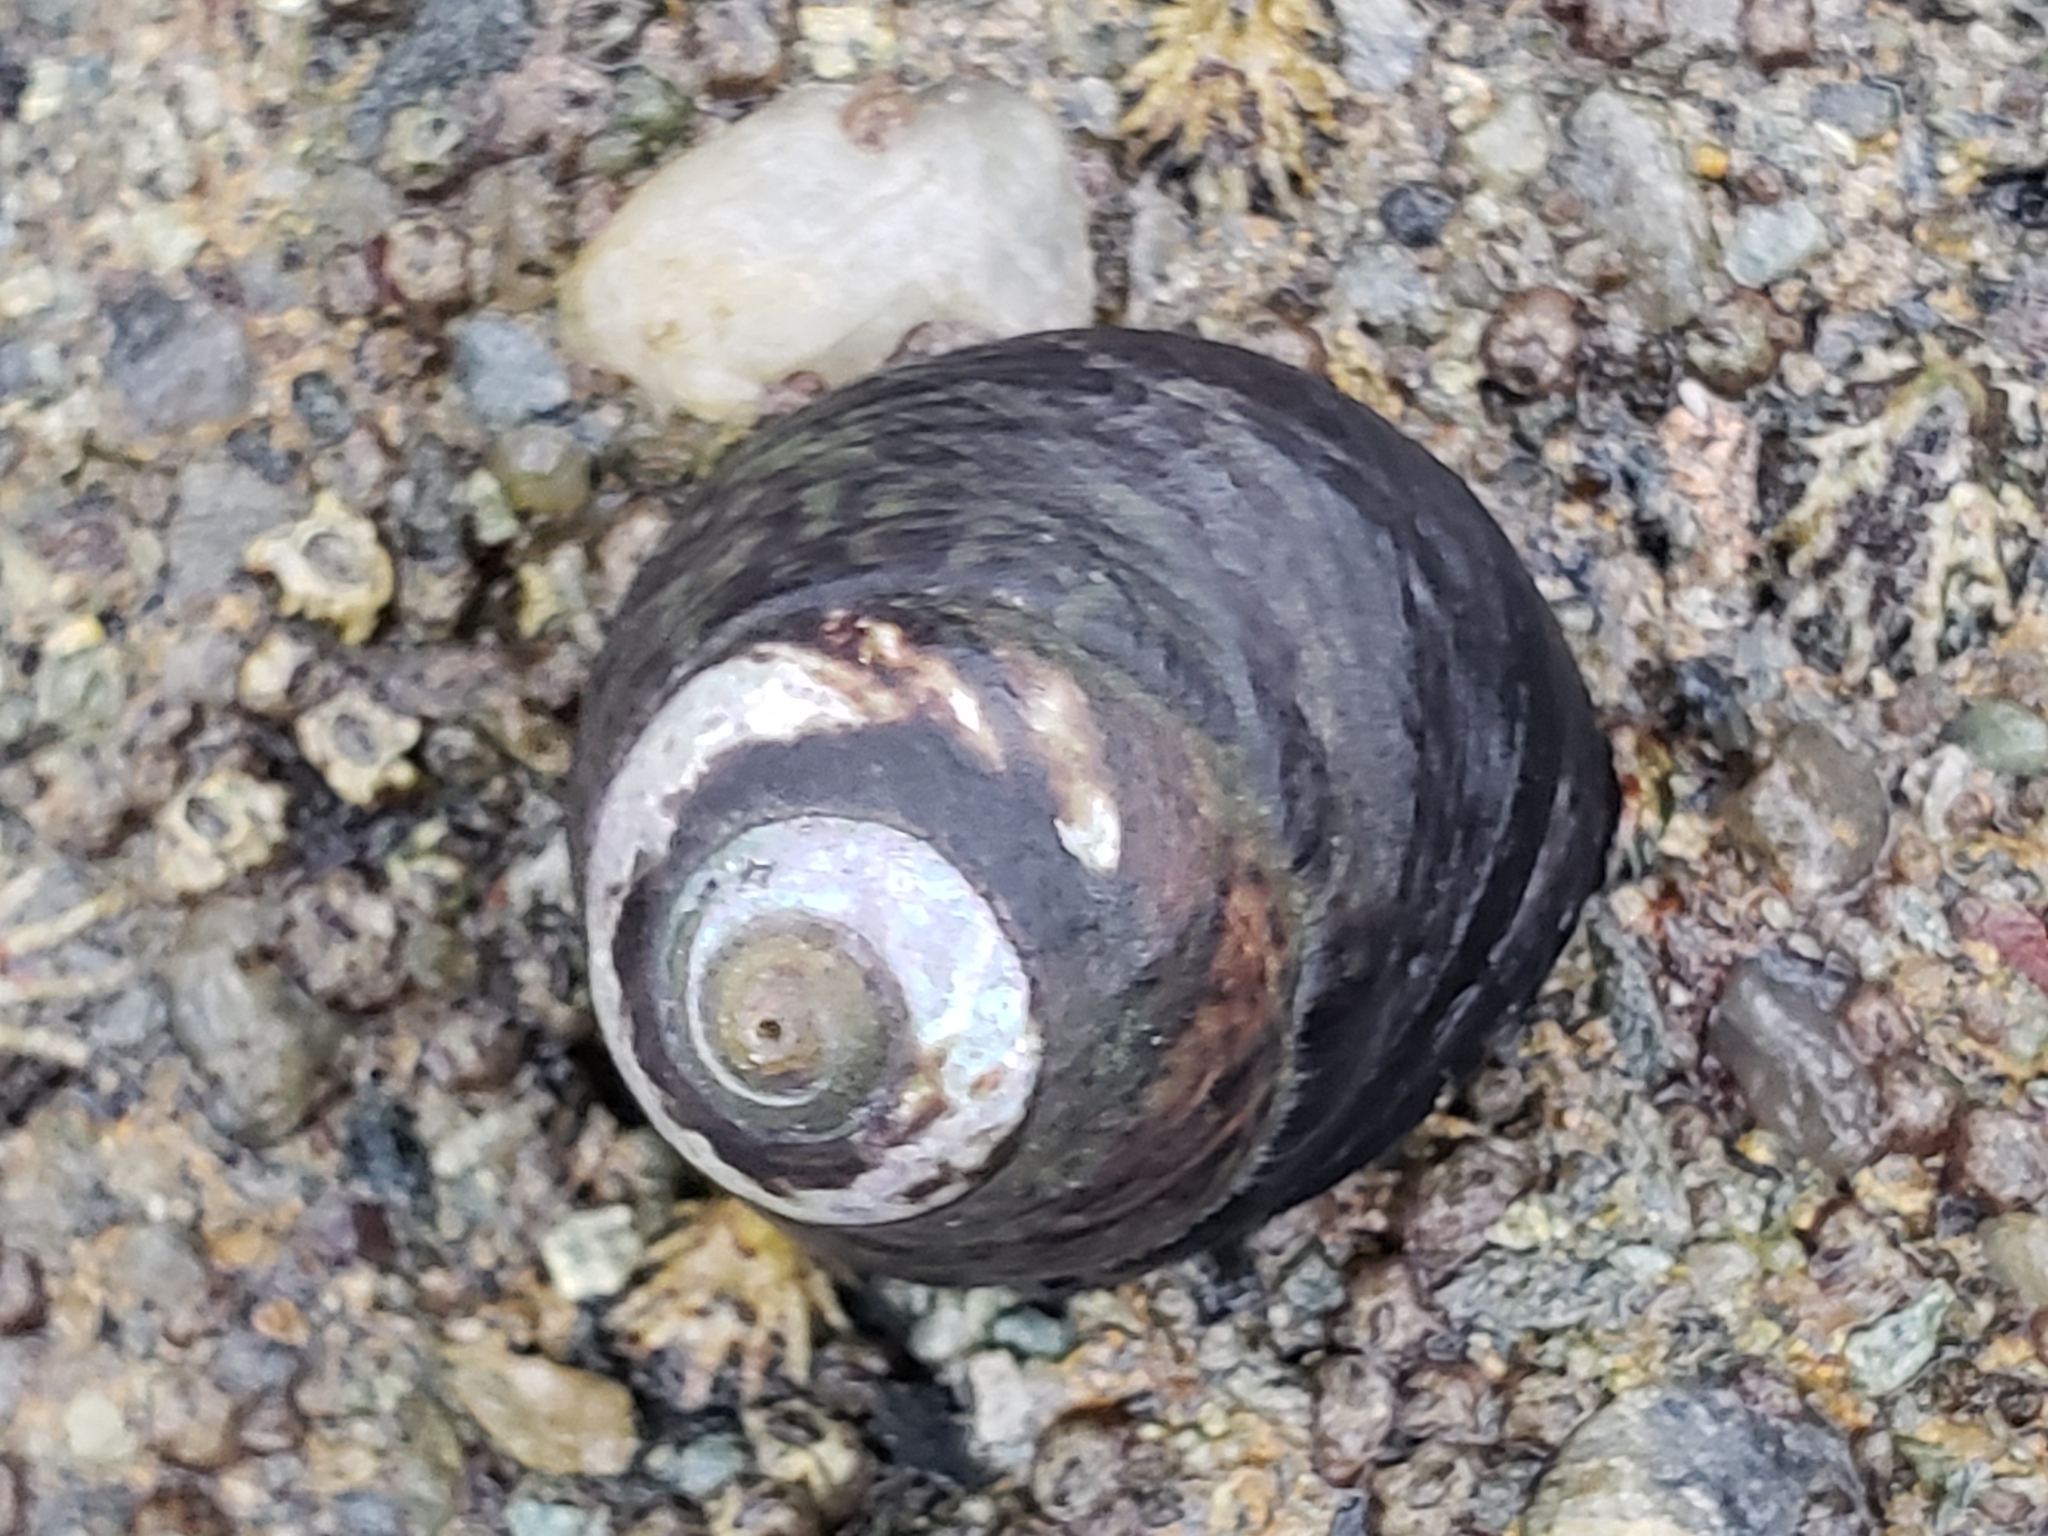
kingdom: Animalia
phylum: Mollusca
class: Gastropoda
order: Trochida
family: Tegulidae
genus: Tegula
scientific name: Tegula funebralis
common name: Black tegula
